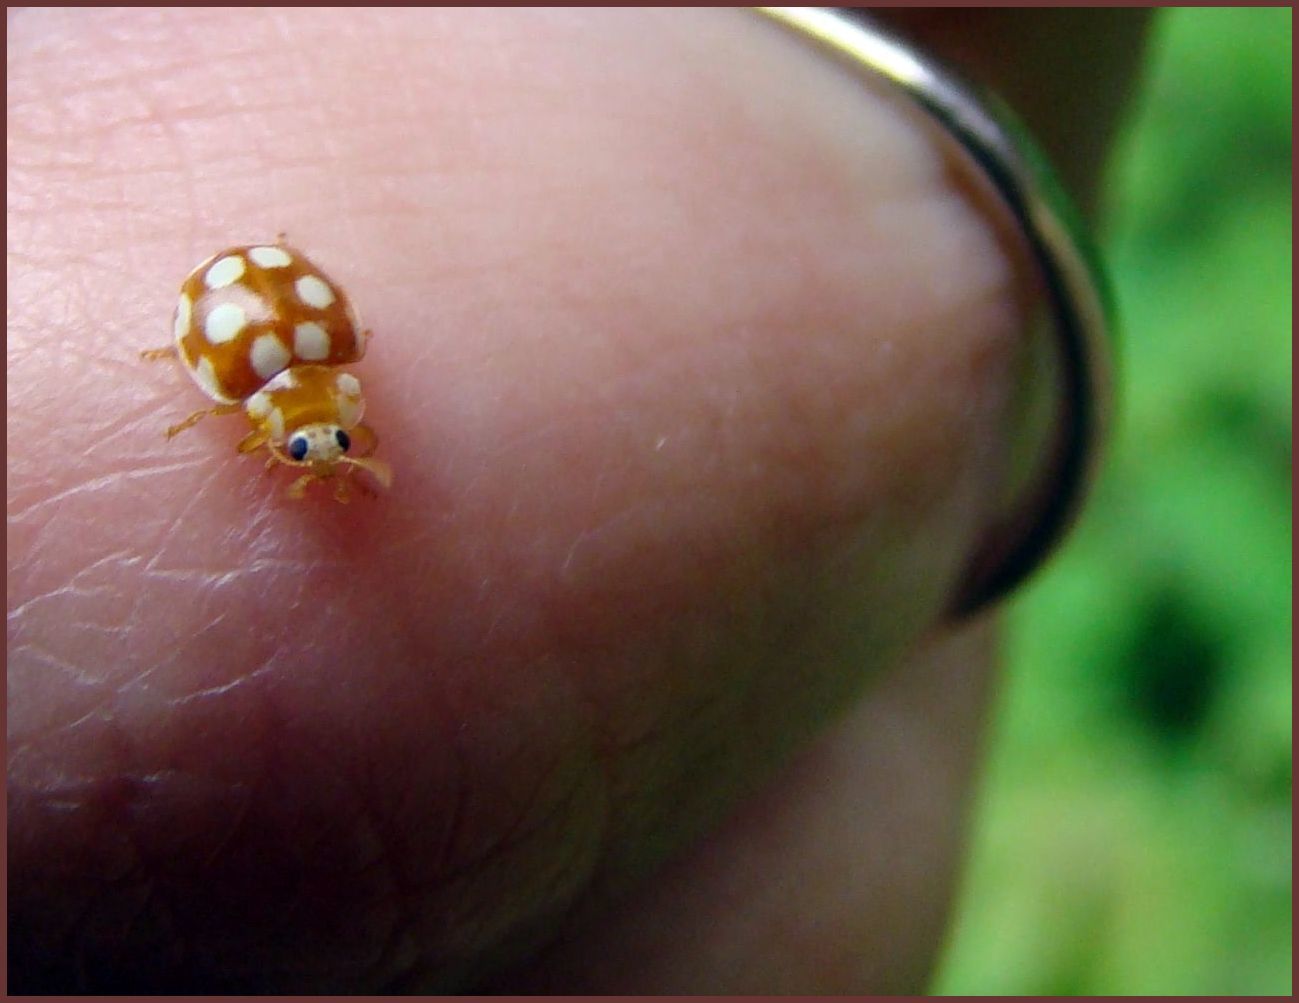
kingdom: Animalia
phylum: Arthropoda
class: Insecta
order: Coleoptera
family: Coccinellidae
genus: Vibidia
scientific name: Vibidia duodecimguttata
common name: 12-spot ladybird
